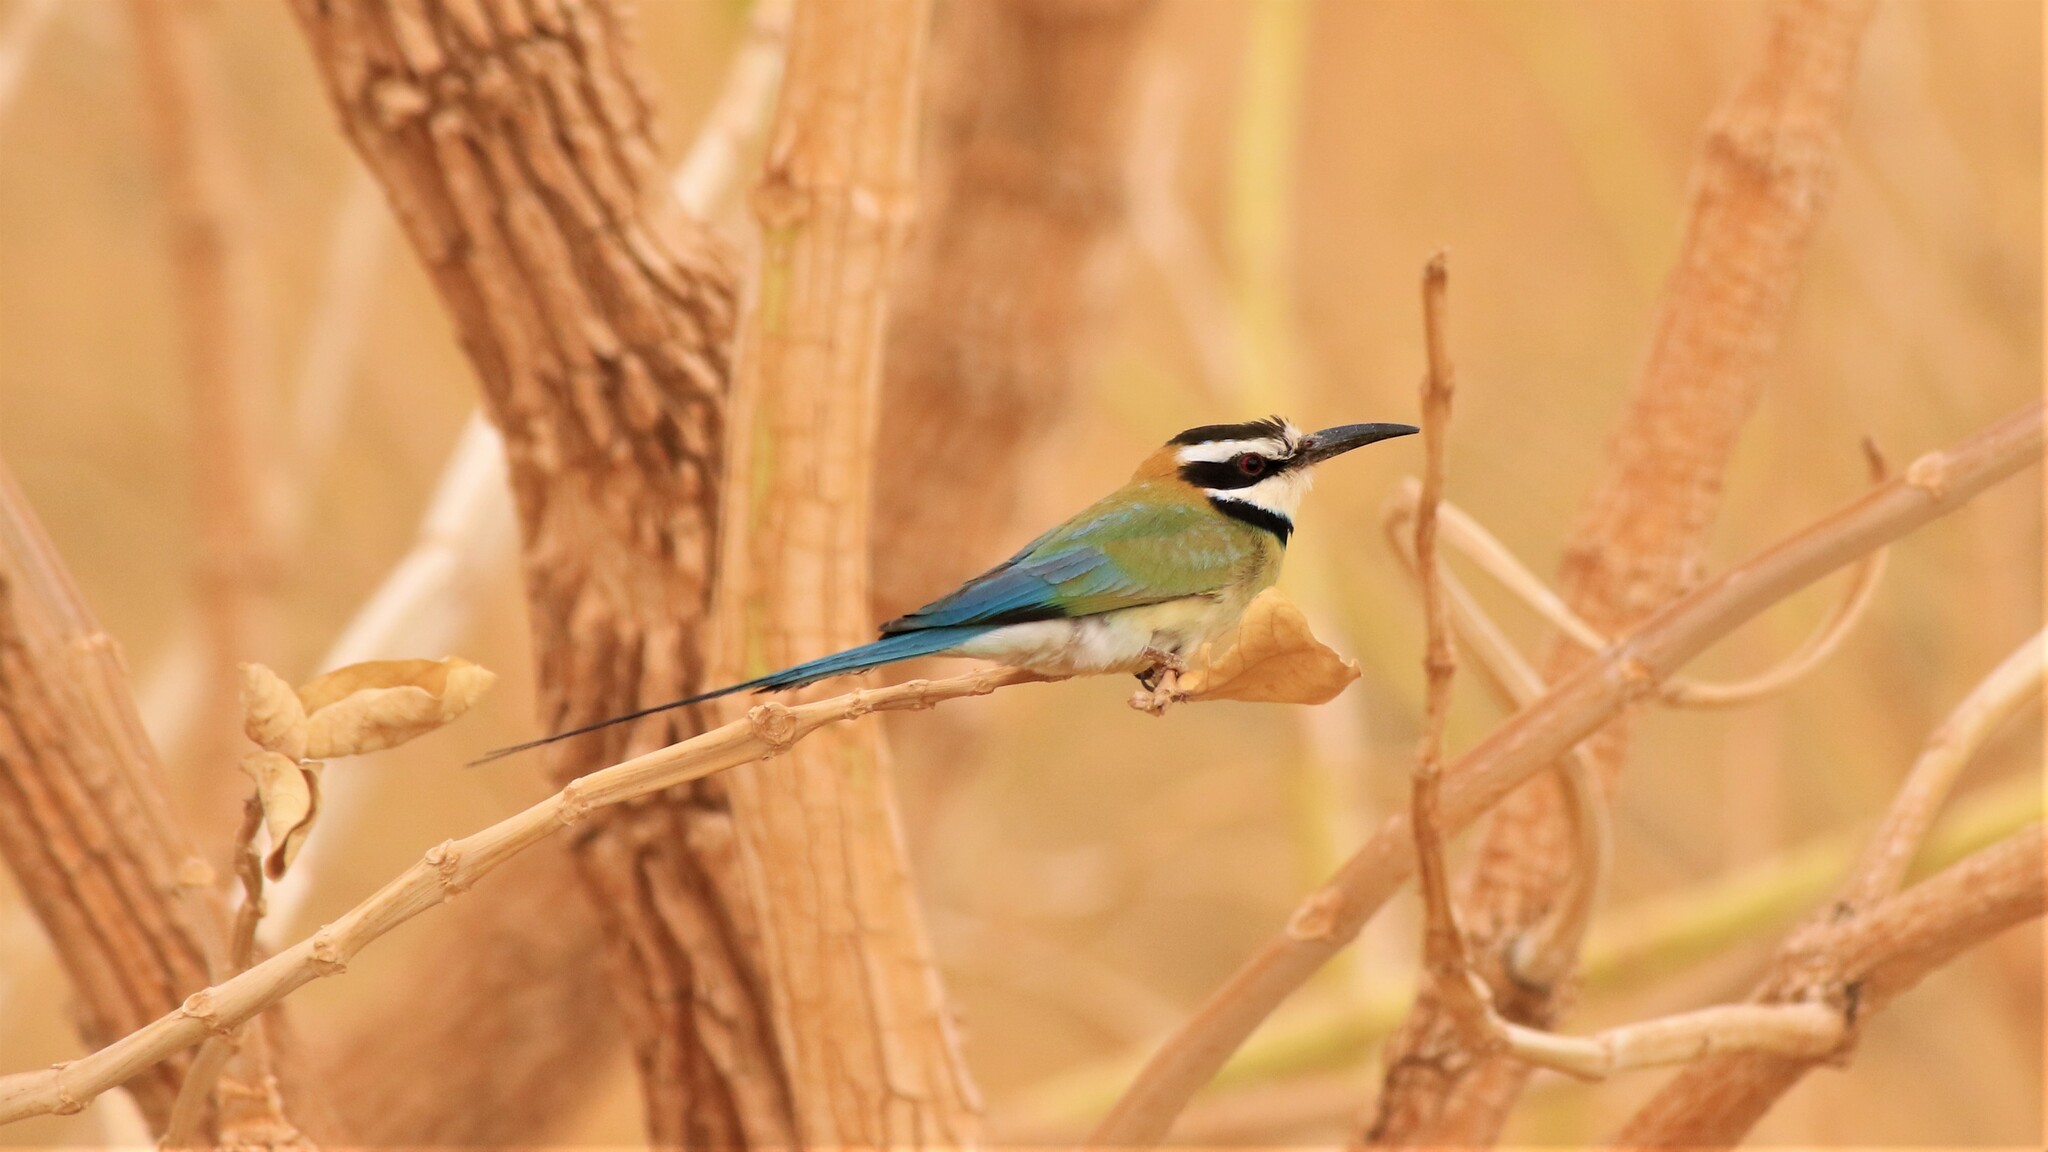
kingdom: Animalia
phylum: Chordata
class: Aves
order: Coraciiformes
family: Meropidae
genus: Merops
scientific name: Merops albicollis
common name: White-throated bee-eater
